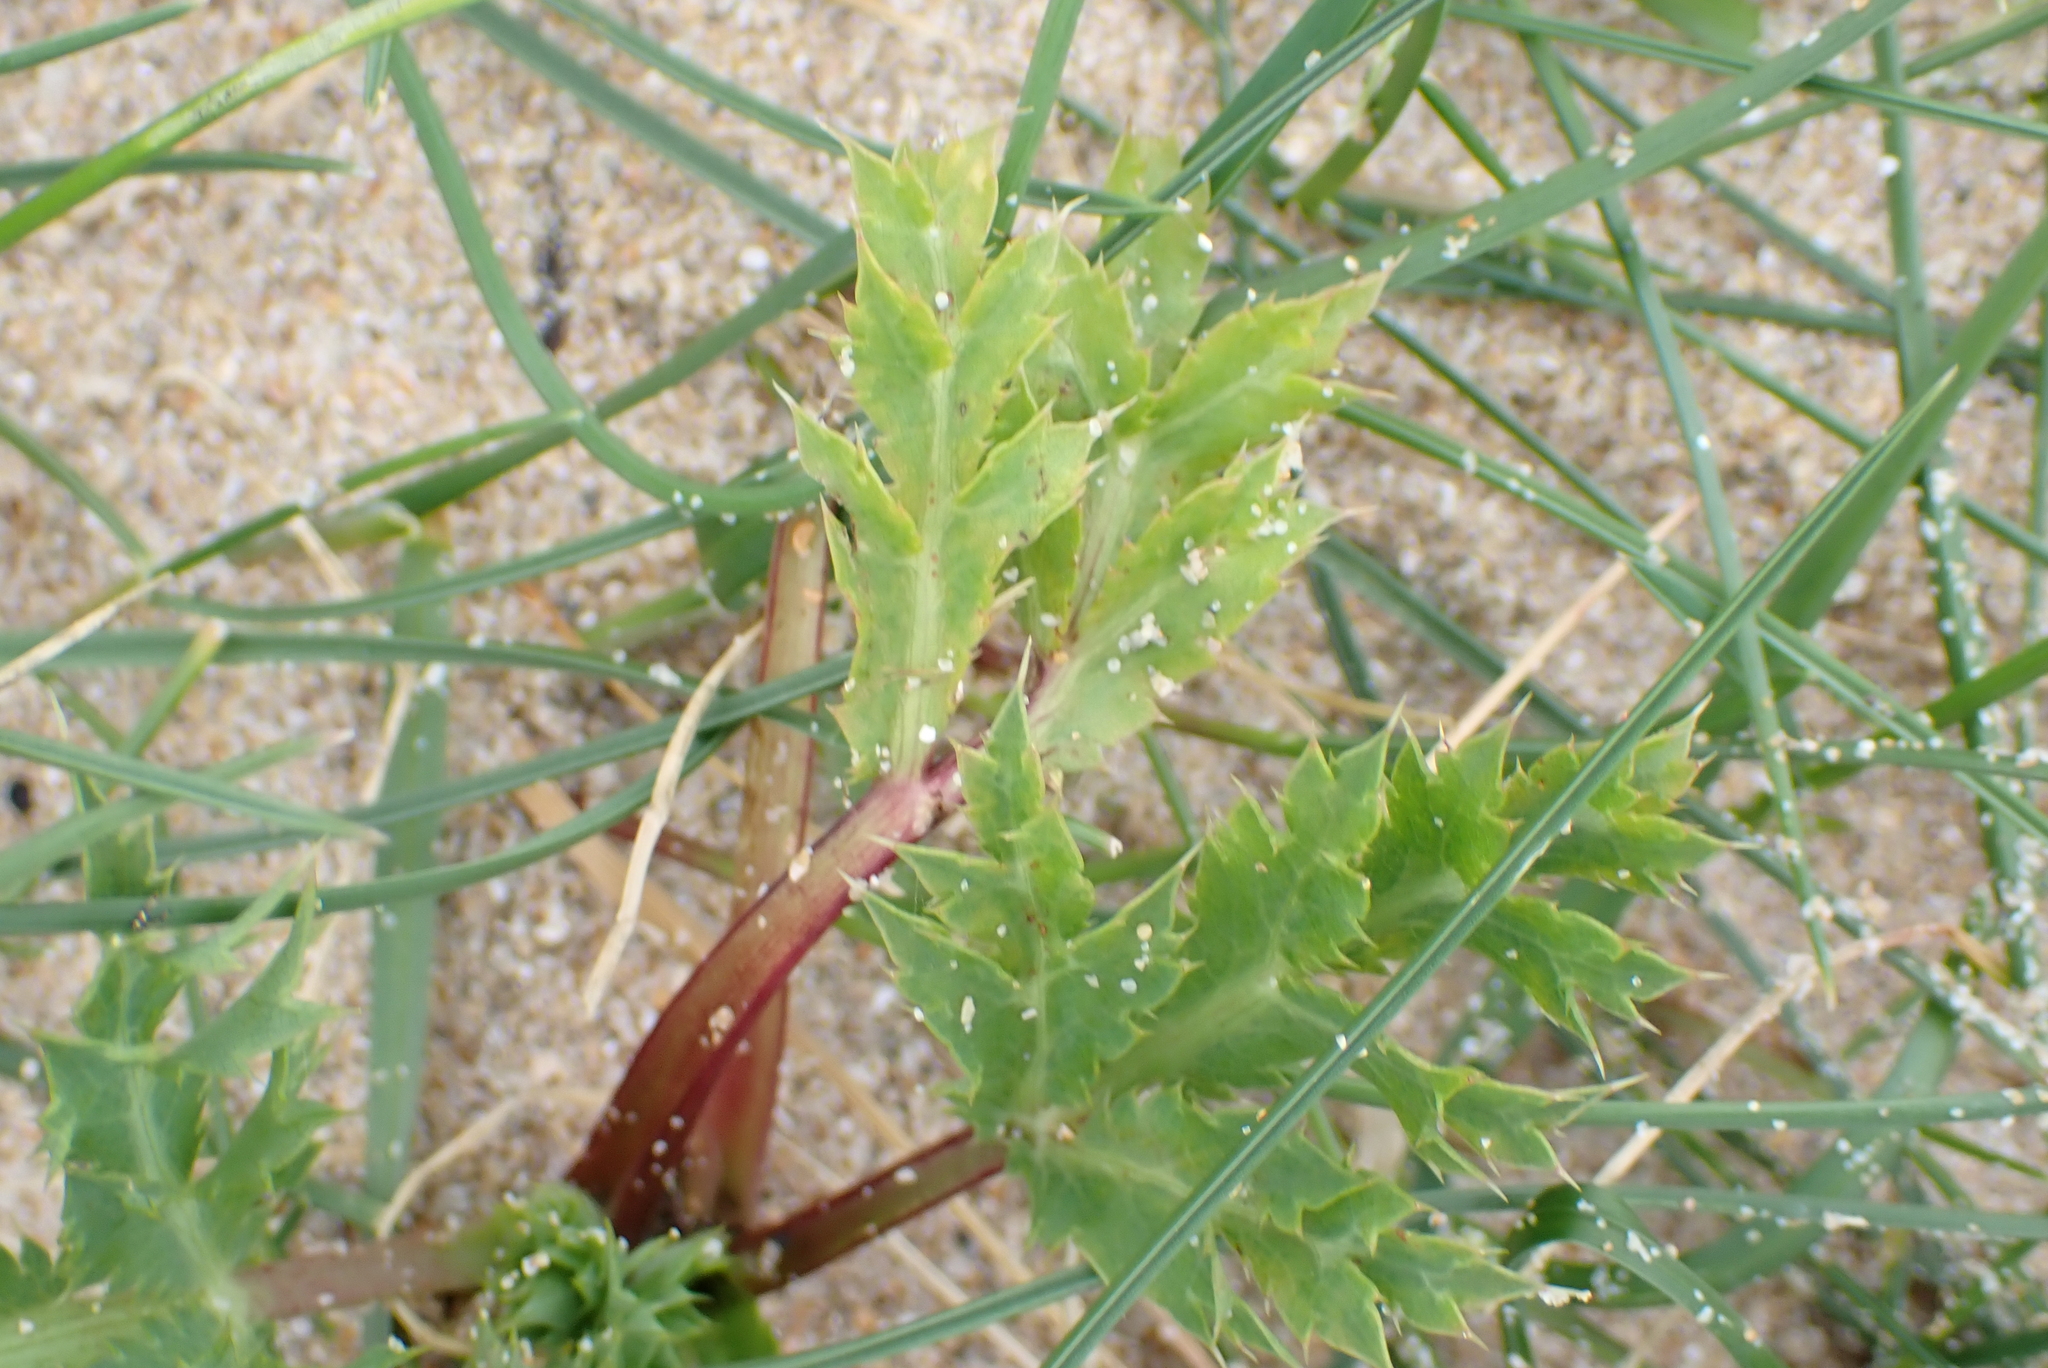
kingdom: Plantae
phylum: Tracheophyta
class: Magnoliopsida
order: Apiales
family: Apiaceae
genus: Eryngium
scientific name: Eryngium campestre
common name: Field eryngo
